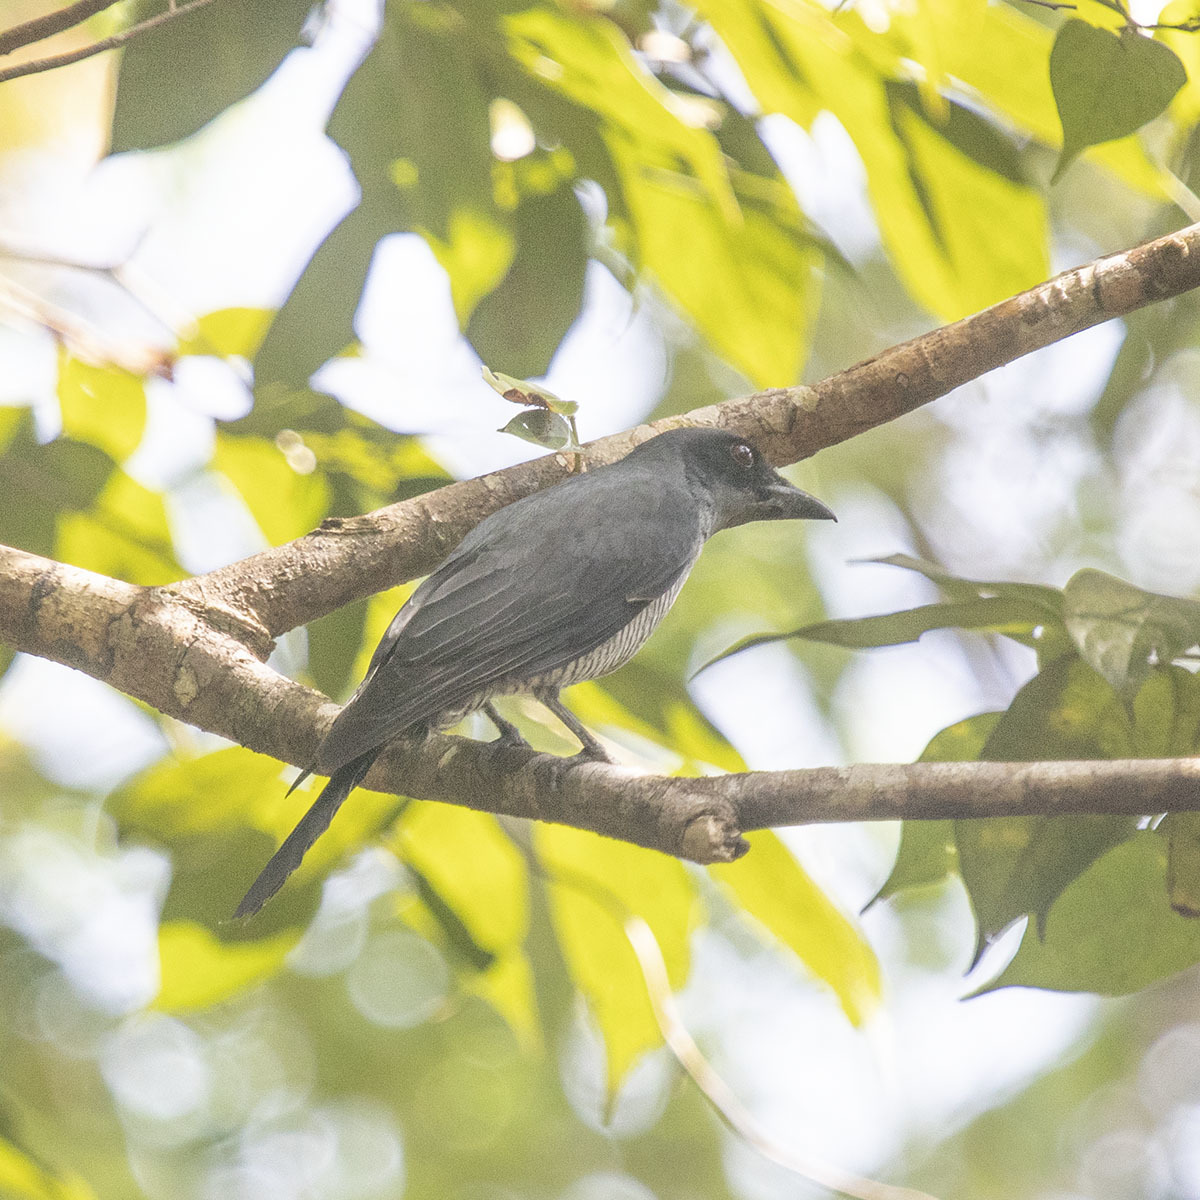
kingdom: Animalia
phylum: Chordata
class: Aves
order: Passeriformes
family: Campephagidae
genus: Coracina
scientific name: Coracina dobsoni
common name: Andaman cuckooshrike
